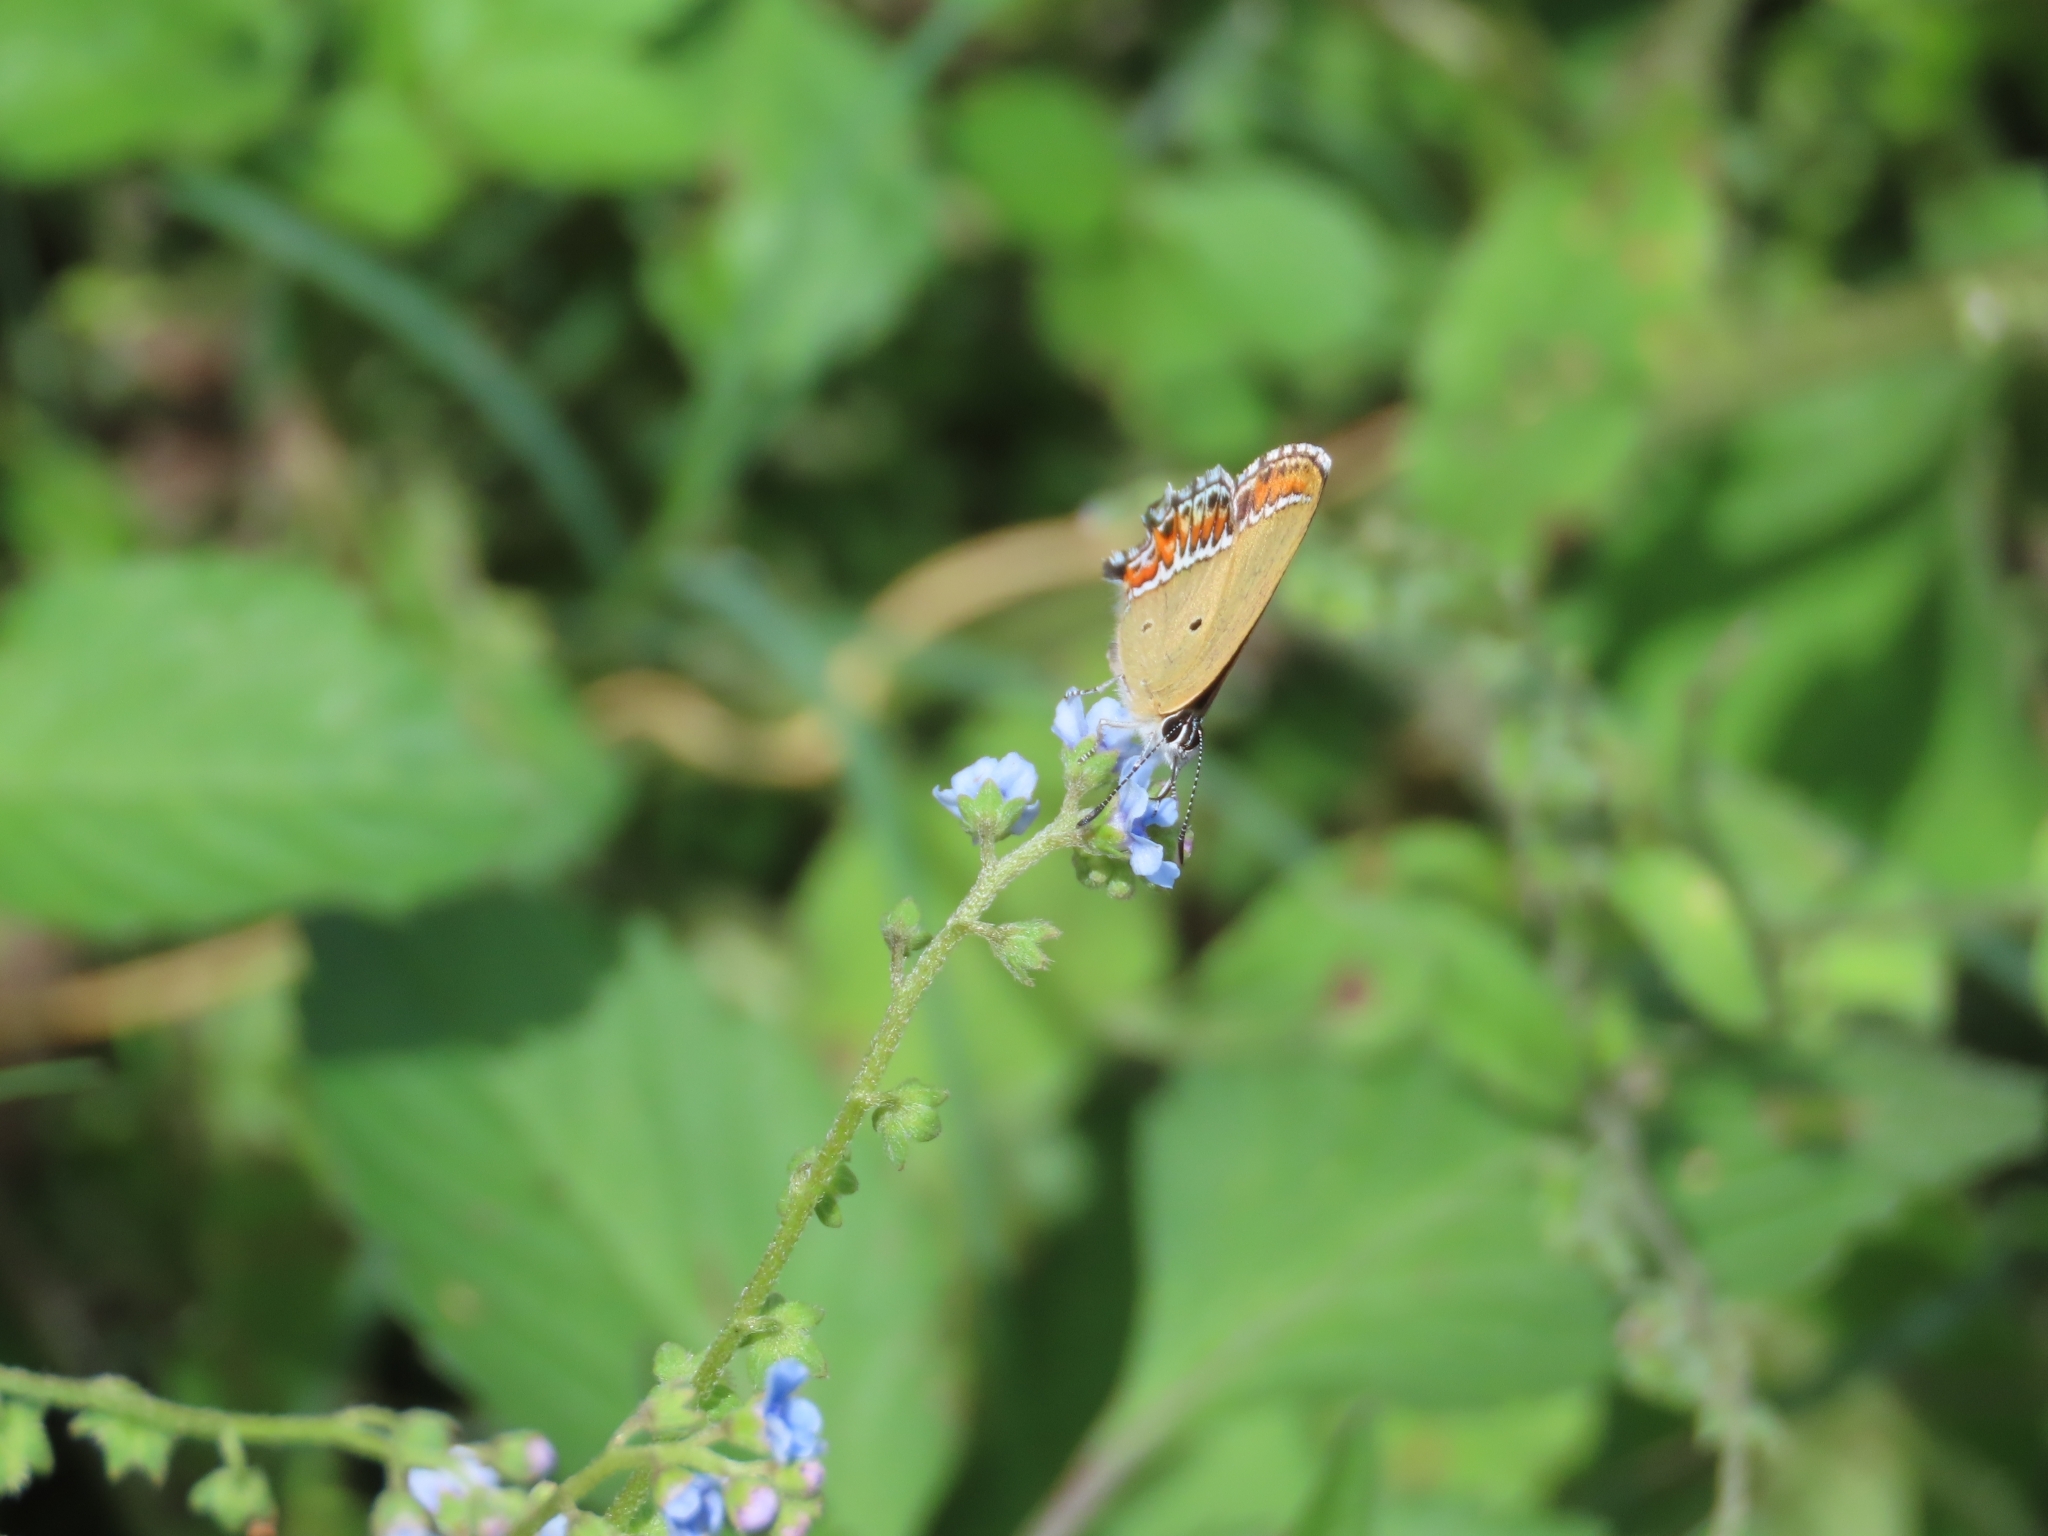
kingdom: Animalia
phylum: Arthropoda
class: Insecta
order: Lepidoptera
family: Lycaenidae
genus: Heliophorus
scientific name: Heliophorus sena
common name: Sorrel sapphire
